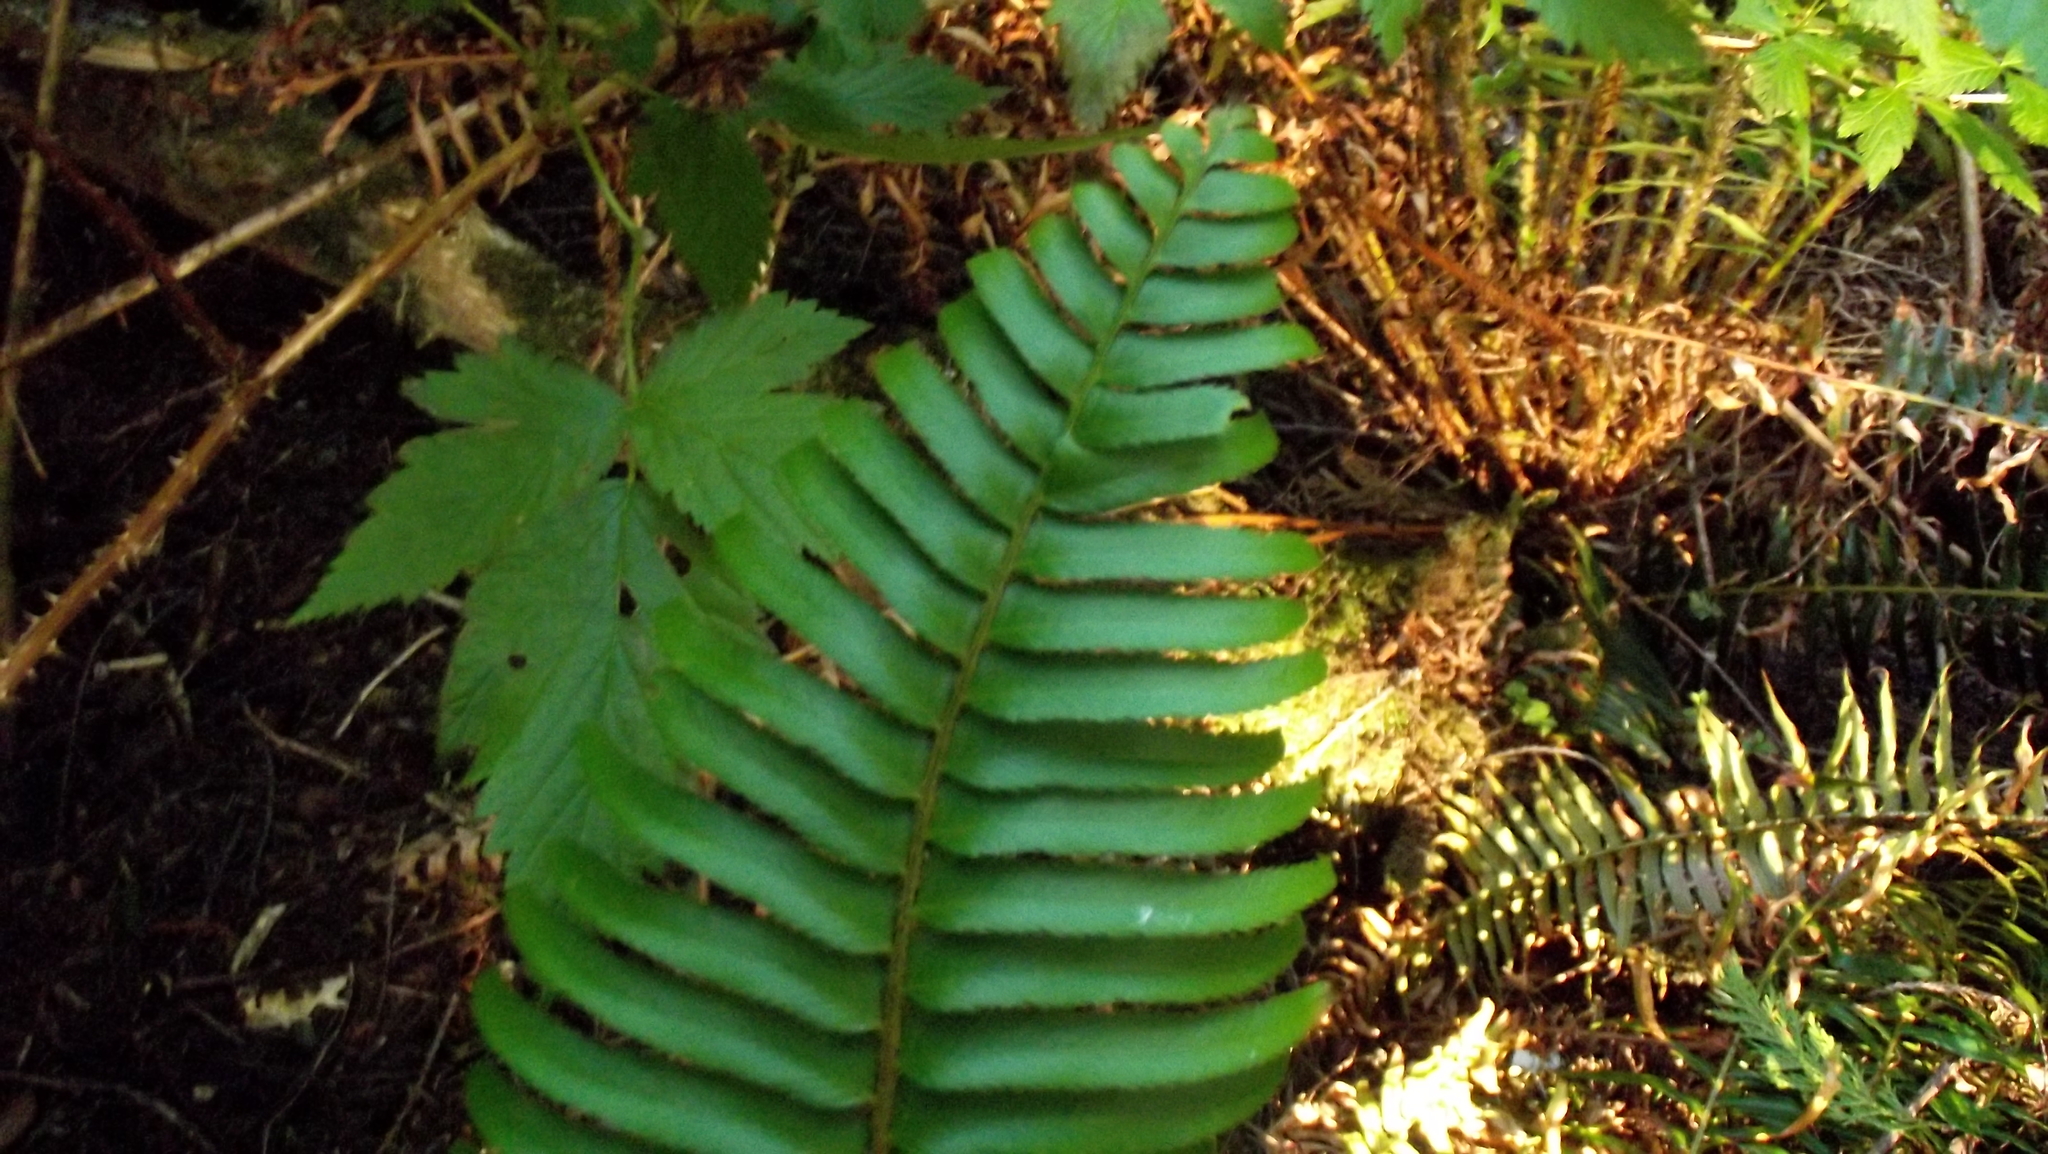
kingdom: Plantae
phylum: Tracheophyta
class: Polypodiopsida
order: Polypodiales
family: Dryopteridaceae
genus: Polystichum
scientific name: Polystichum munitum
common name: Western sword-fern
